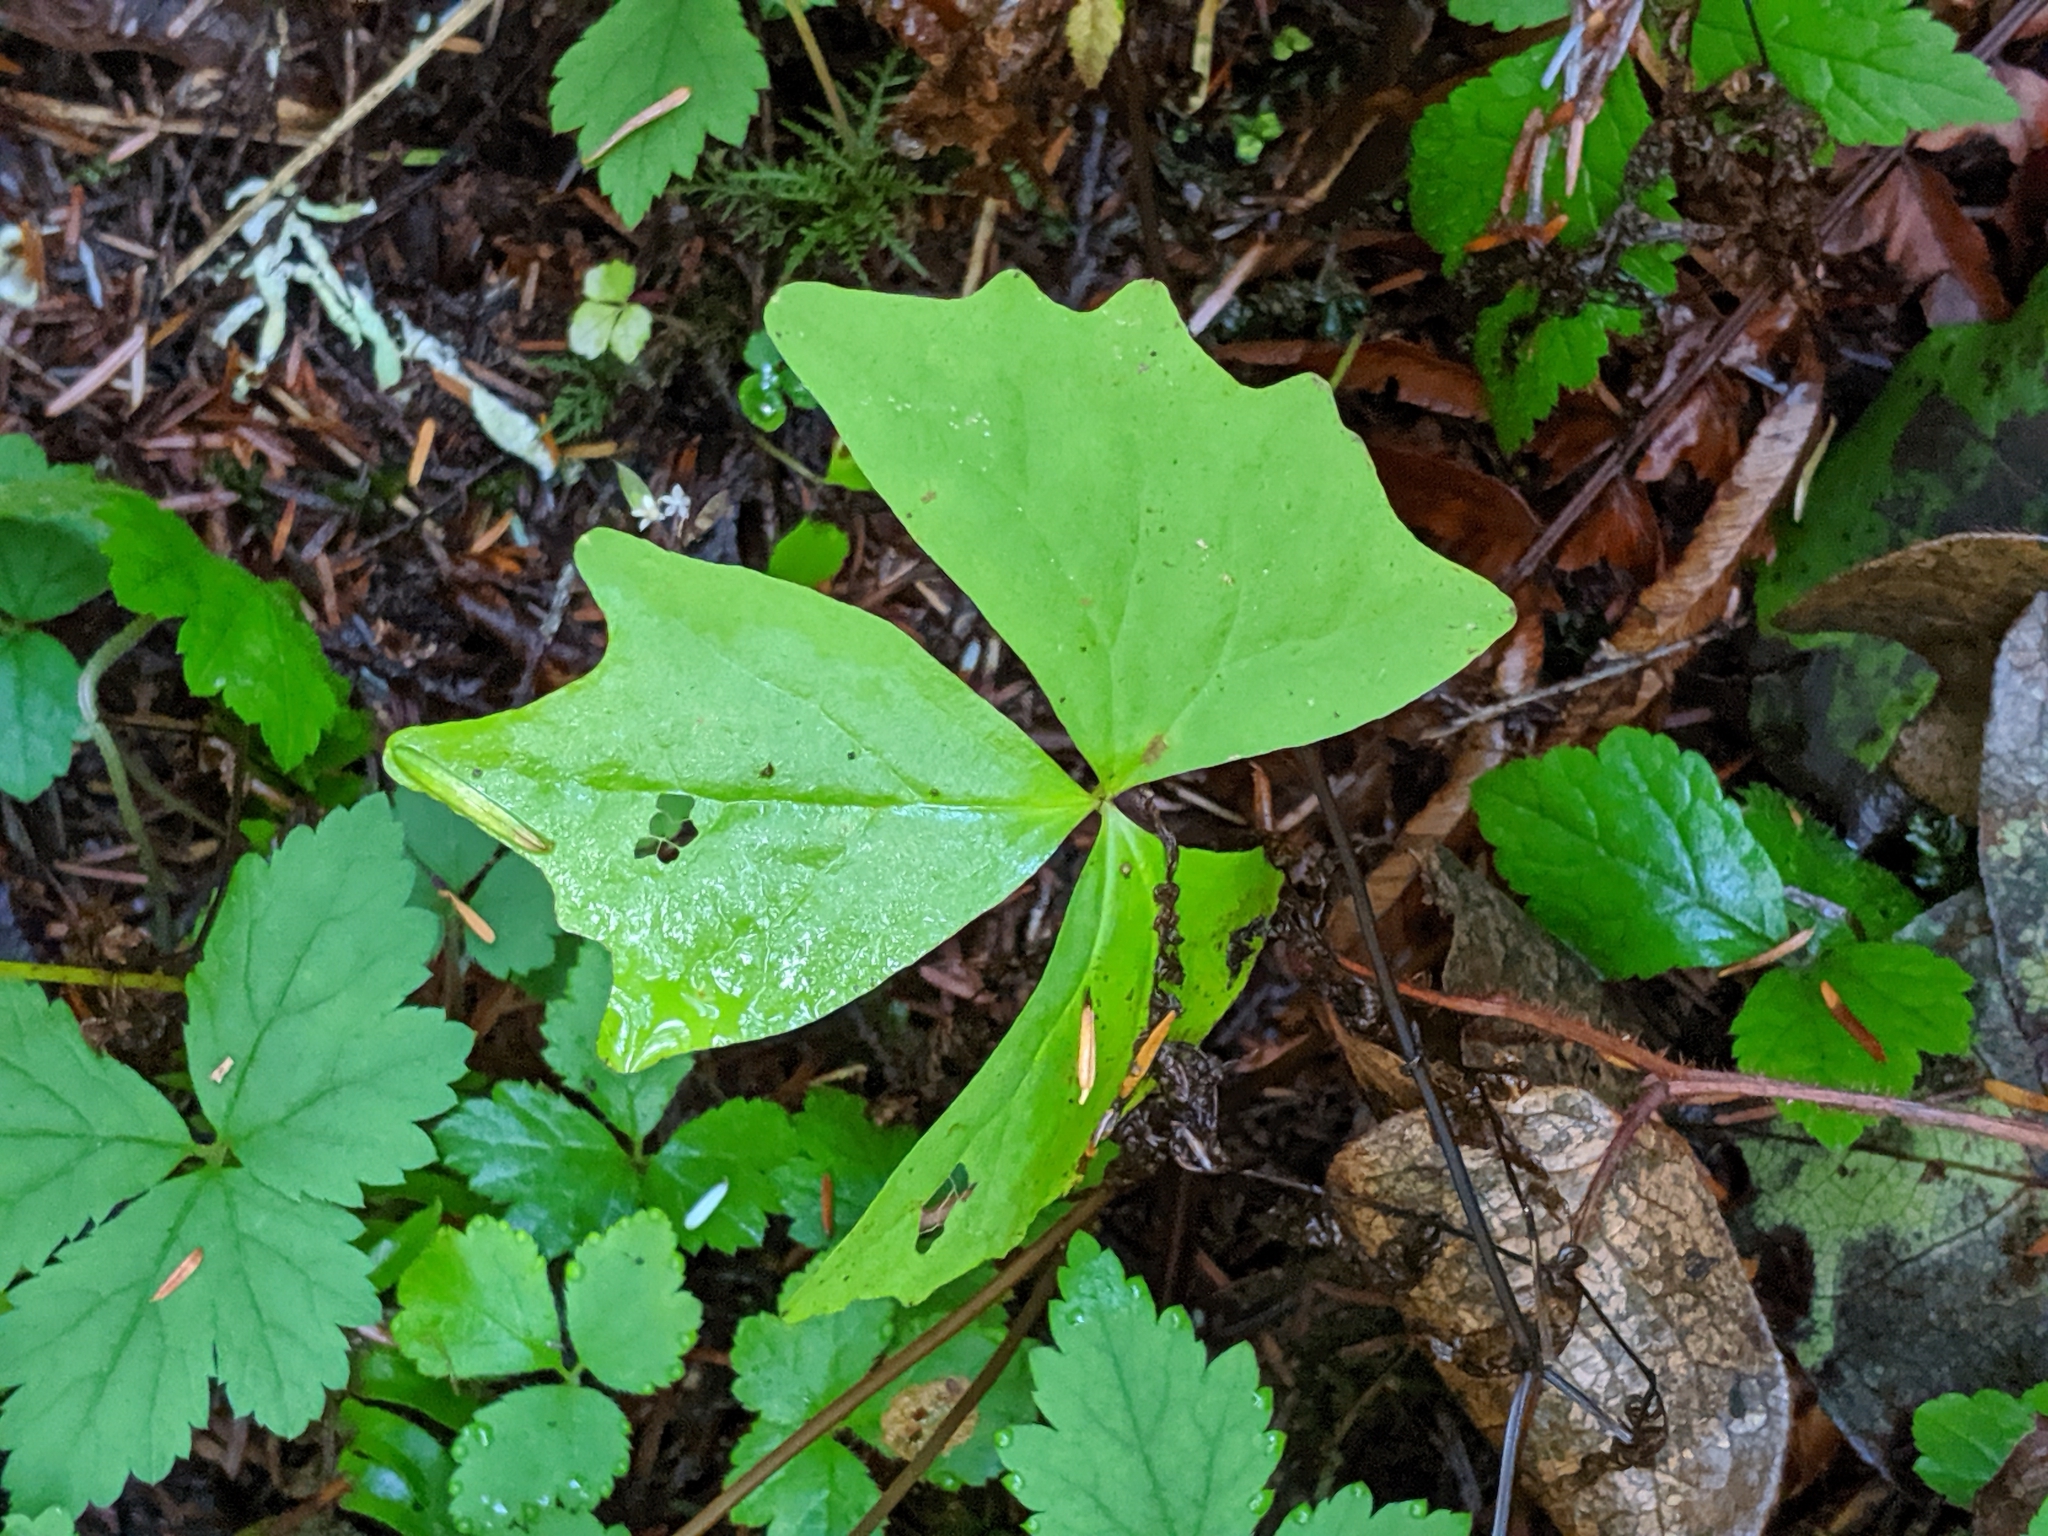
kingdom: Plantae
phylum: Tracheophyta
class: Magnoliopsida
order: Ranunculales
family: Berberidaceae
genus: Achlys
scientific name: Achlys triphylla
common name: Vanilla-leaf
